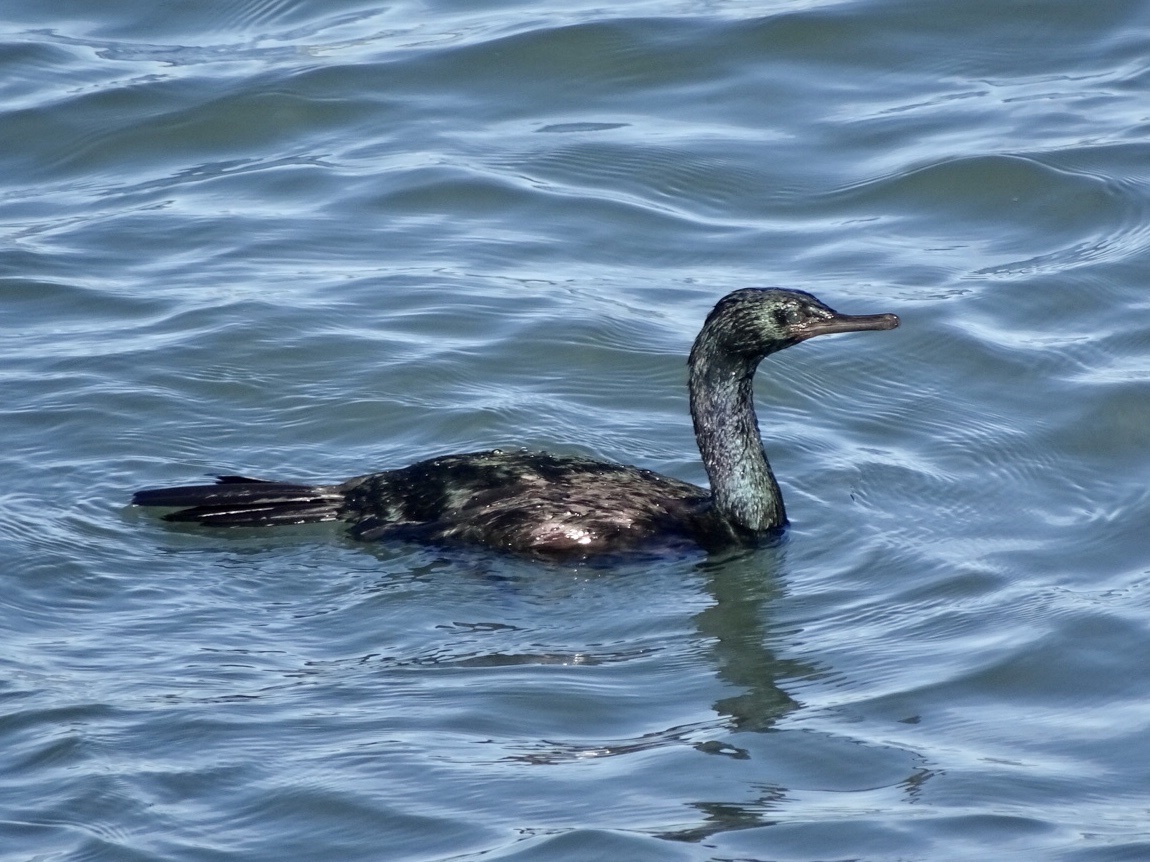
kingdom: Animalia
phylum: Chordata
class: Aves
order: Suliformes
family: Phalacrocoracidae
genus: Phalacrocorax
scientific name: Phalacrocorax pelagicus
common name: Pelagic cormorant
